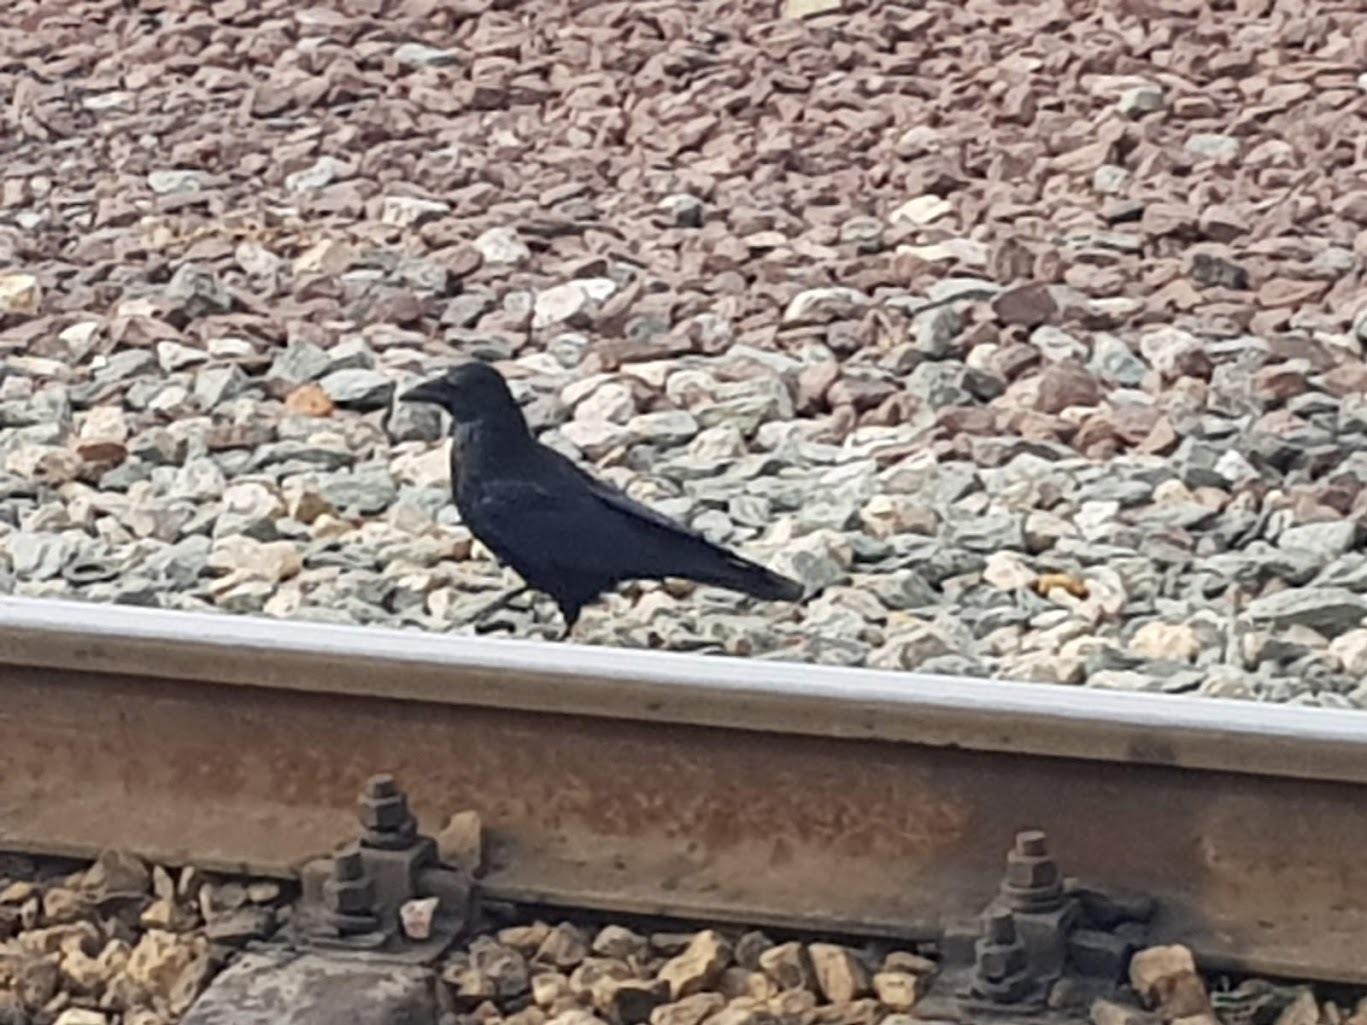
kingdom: Animalia
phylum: Chordata
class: Aves
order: Passeriformes
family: Corvidae
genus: Corvus
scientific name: Corvus corone
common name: Carrion crow
